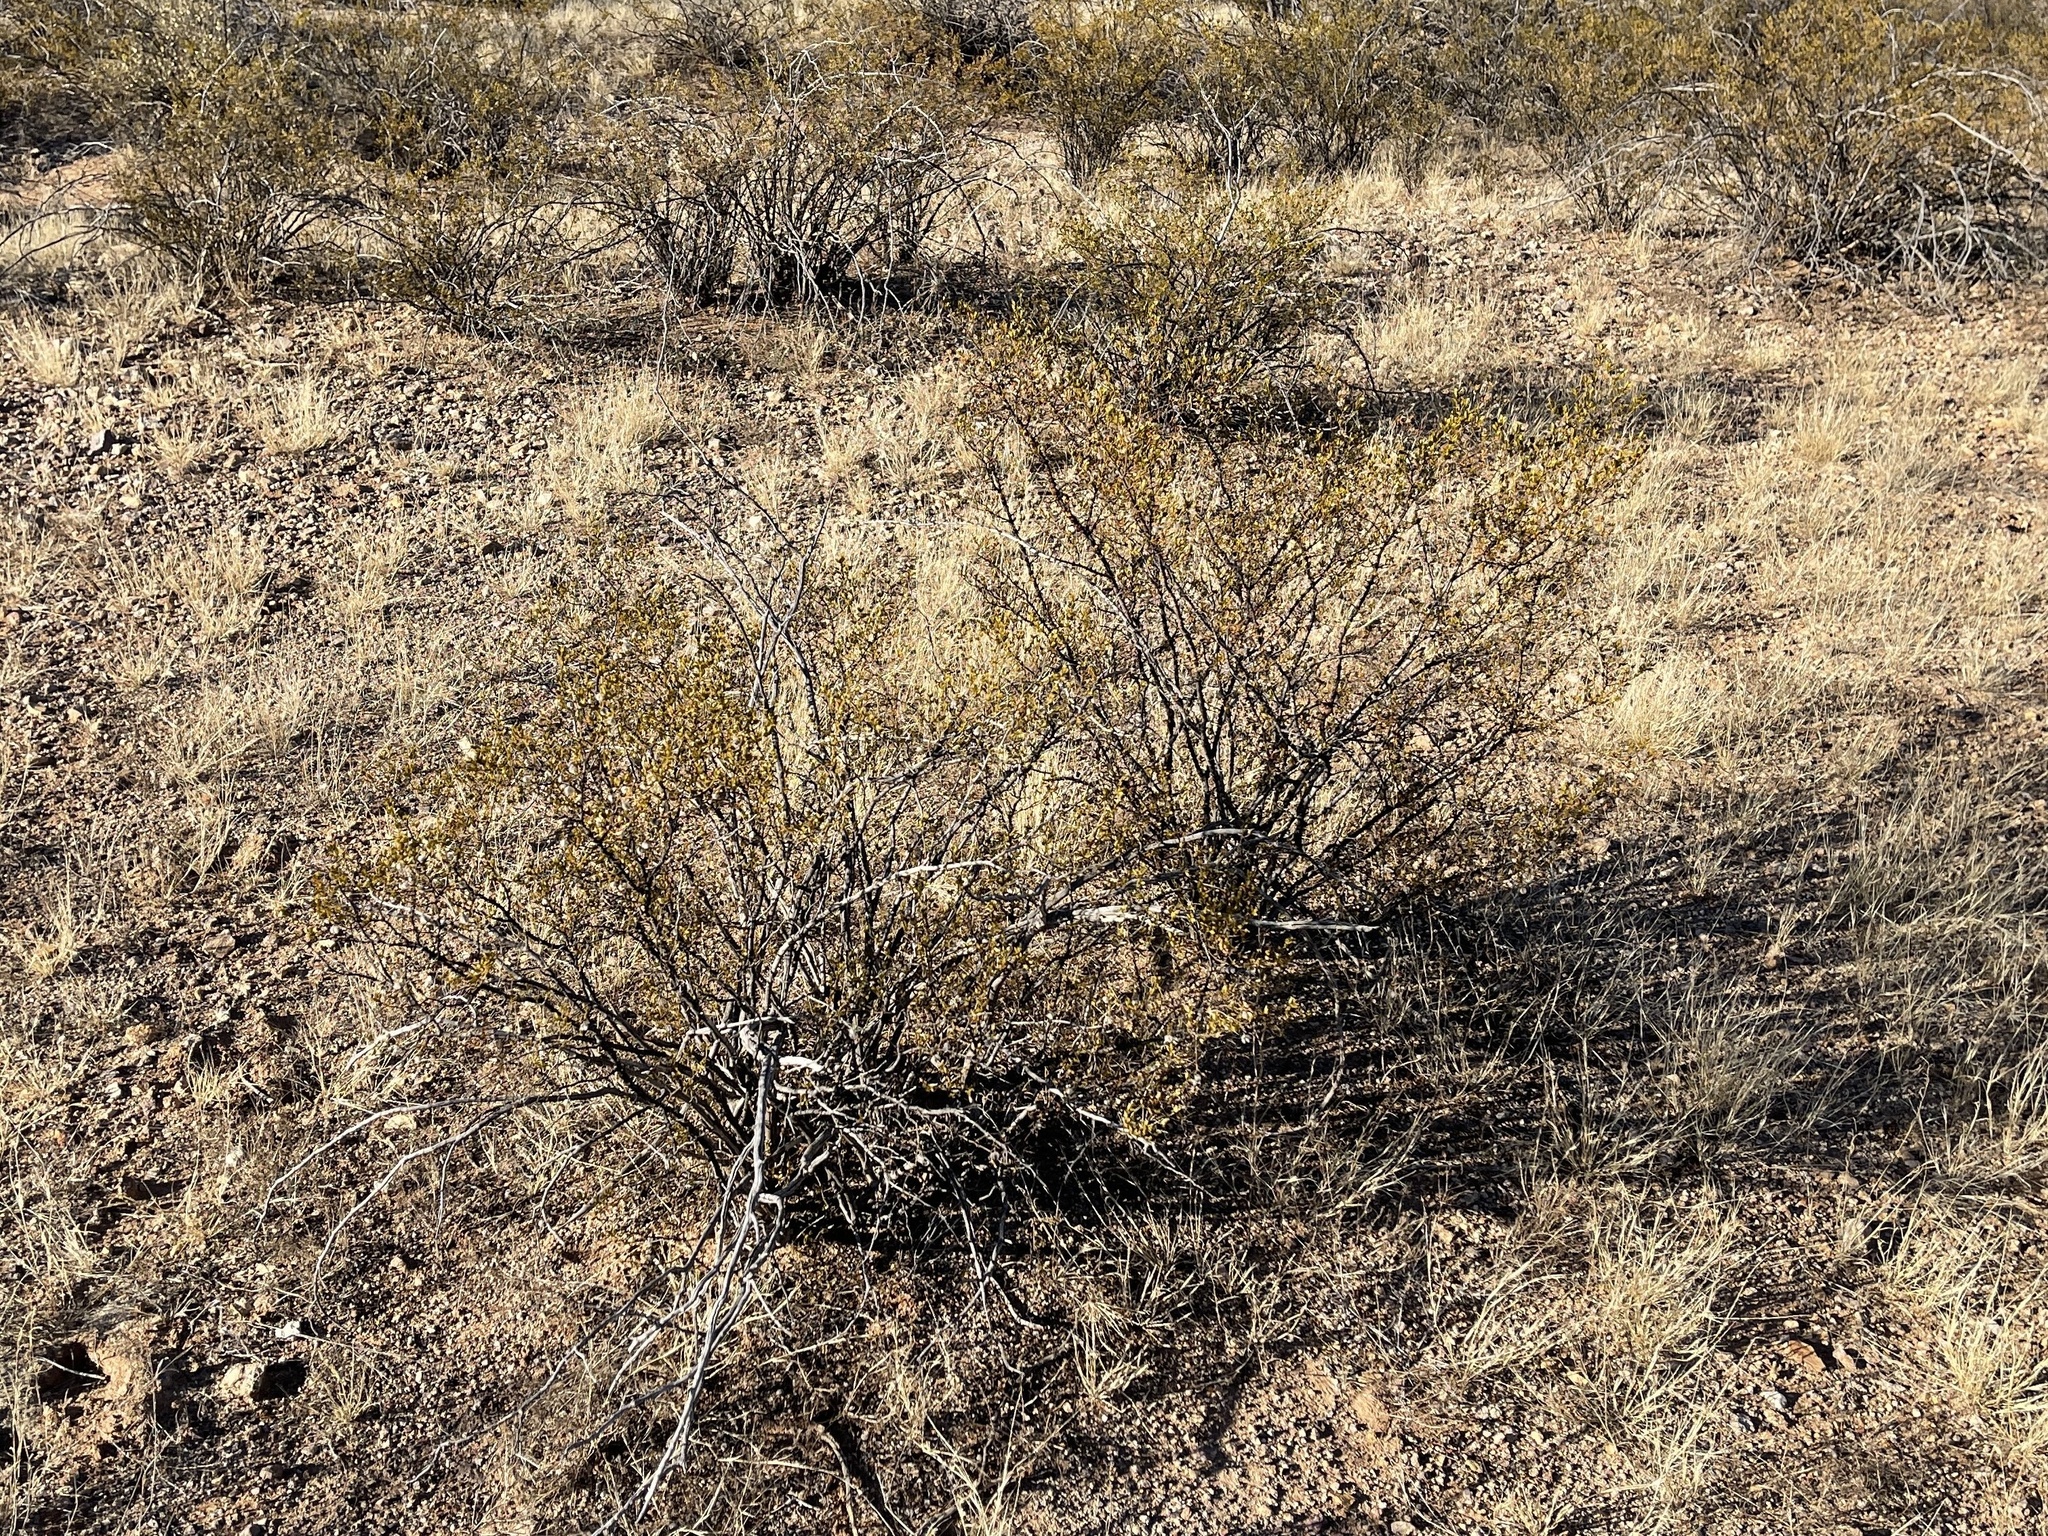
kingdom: Plantae
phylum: Tracheophyta
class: Magnoliopsida
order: Zygophyllales
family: Zygophyllaceae
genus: Larrea
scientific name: Larrea tridentata
